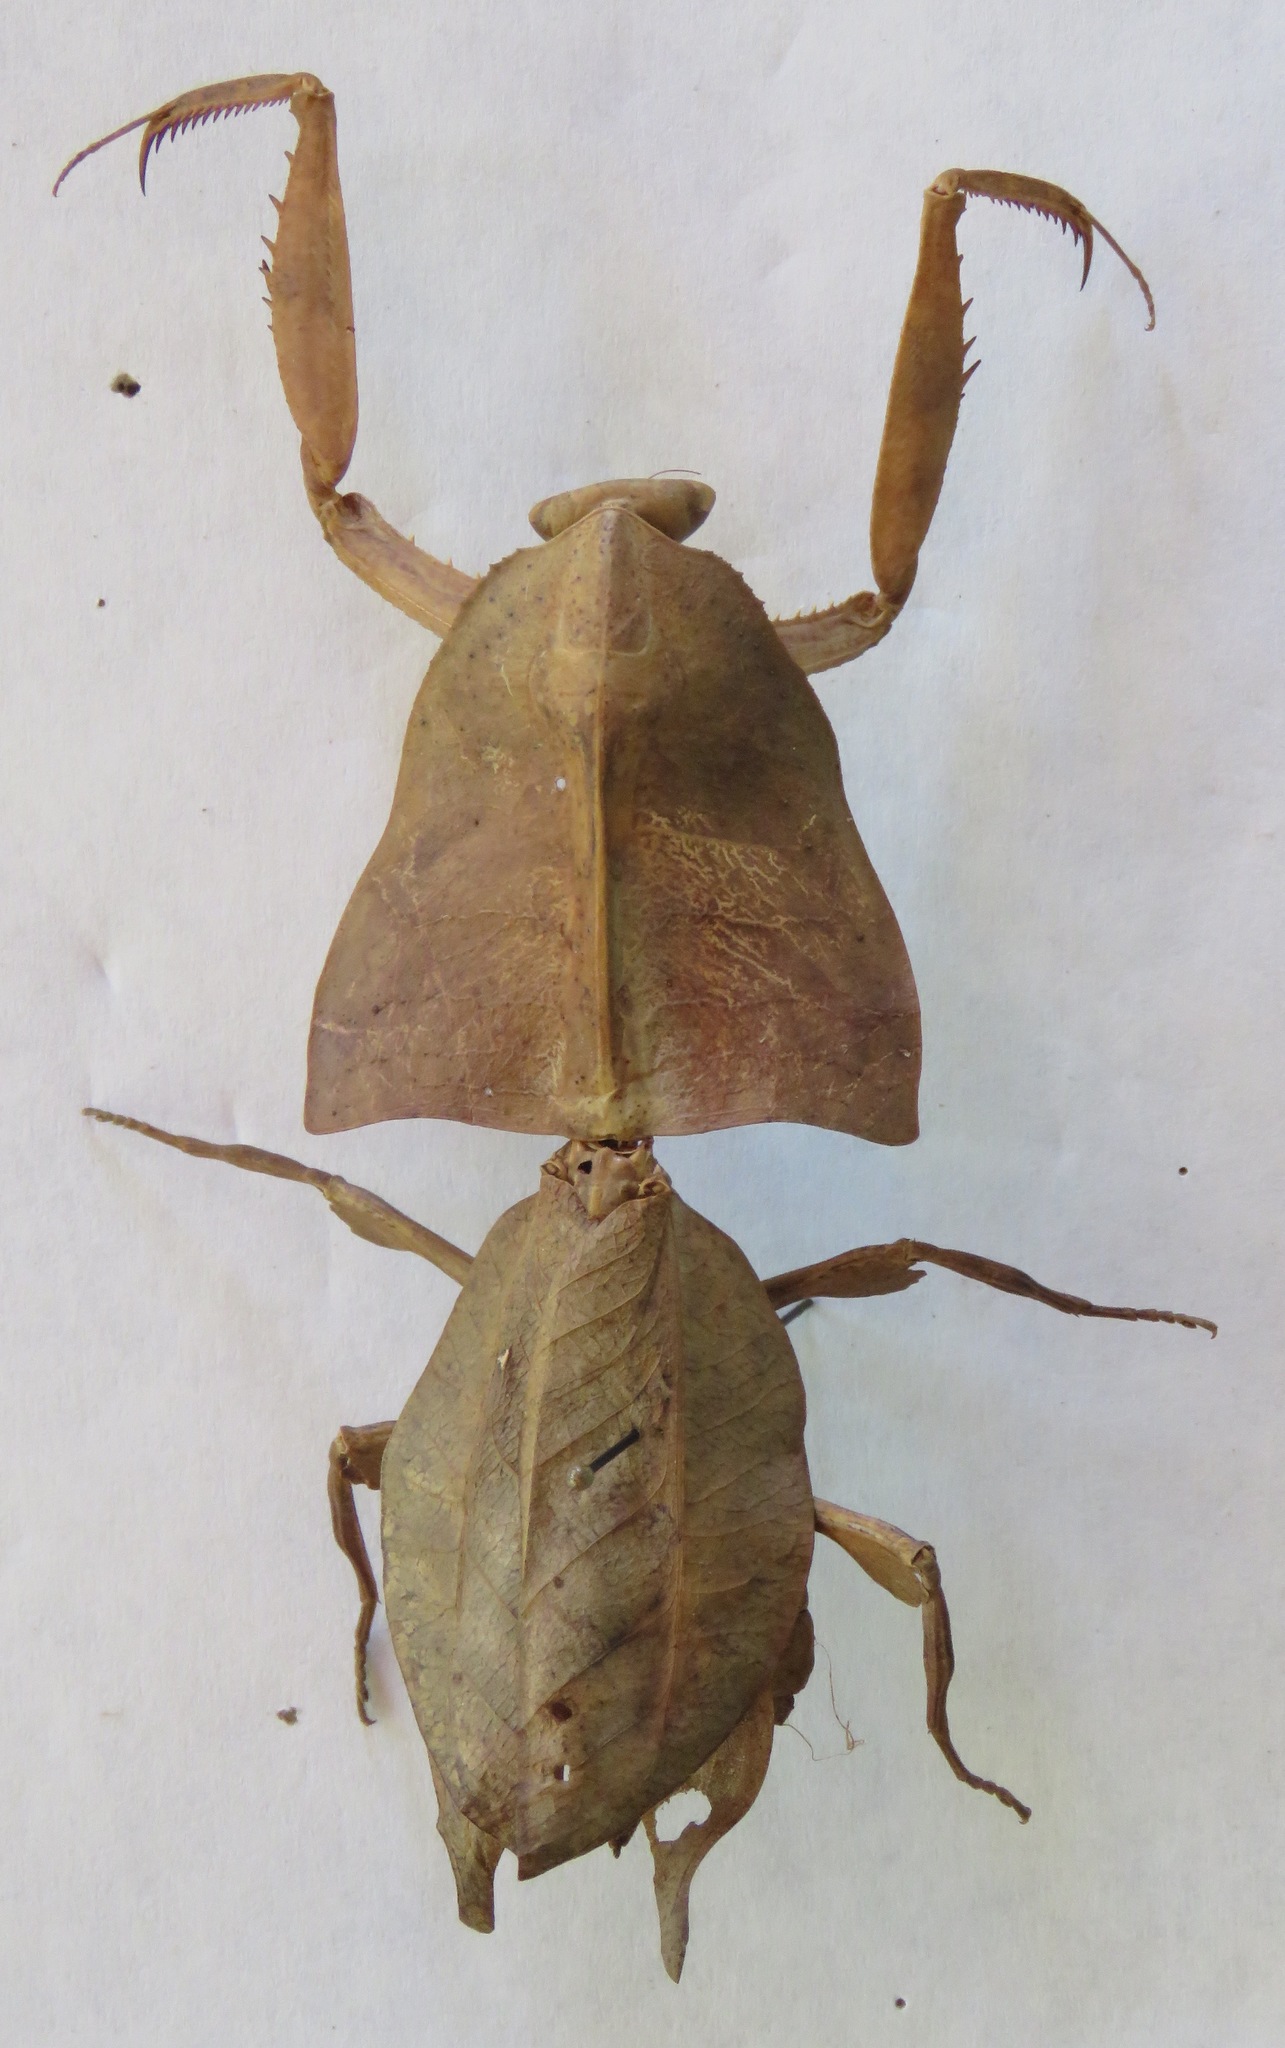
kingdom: Animalia
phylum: Arthropoda
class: Insecta
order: Mantodea
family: Deroplatyidae
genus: Deroplatys
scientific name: Deroplatys truncata
